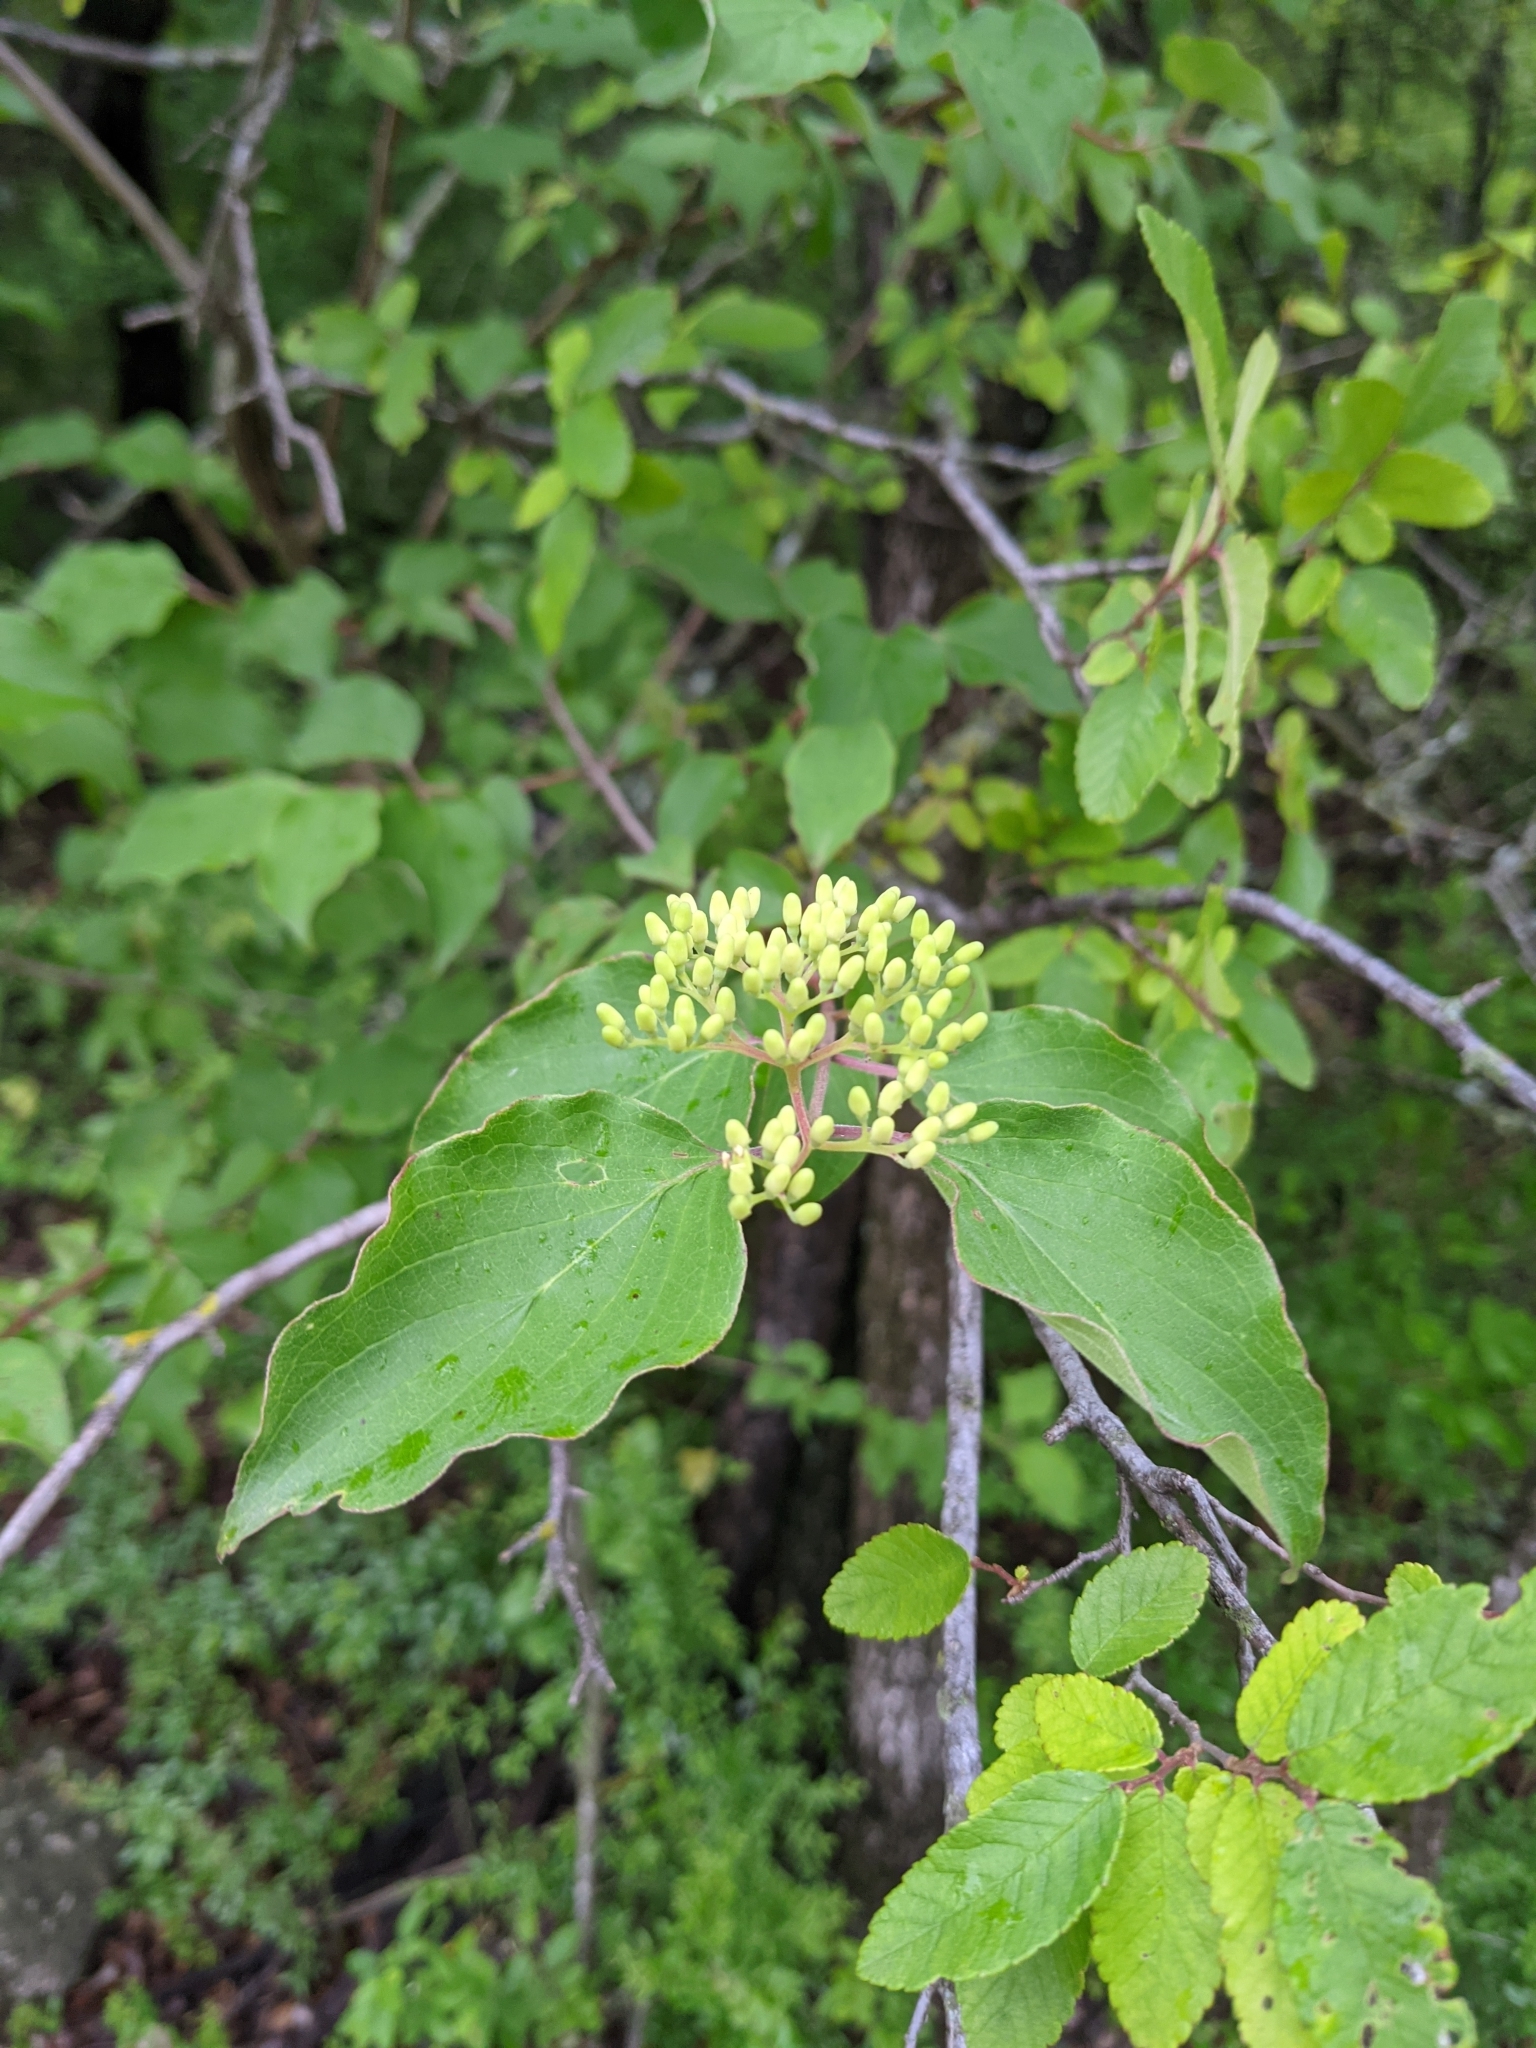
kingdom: Plantae
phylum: Tracheophyta
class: Magnoliopsida
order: Cornales
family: Cornaceae
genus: Cornus
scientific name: Cornus drummondii
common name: Rough-leaf dogwood
